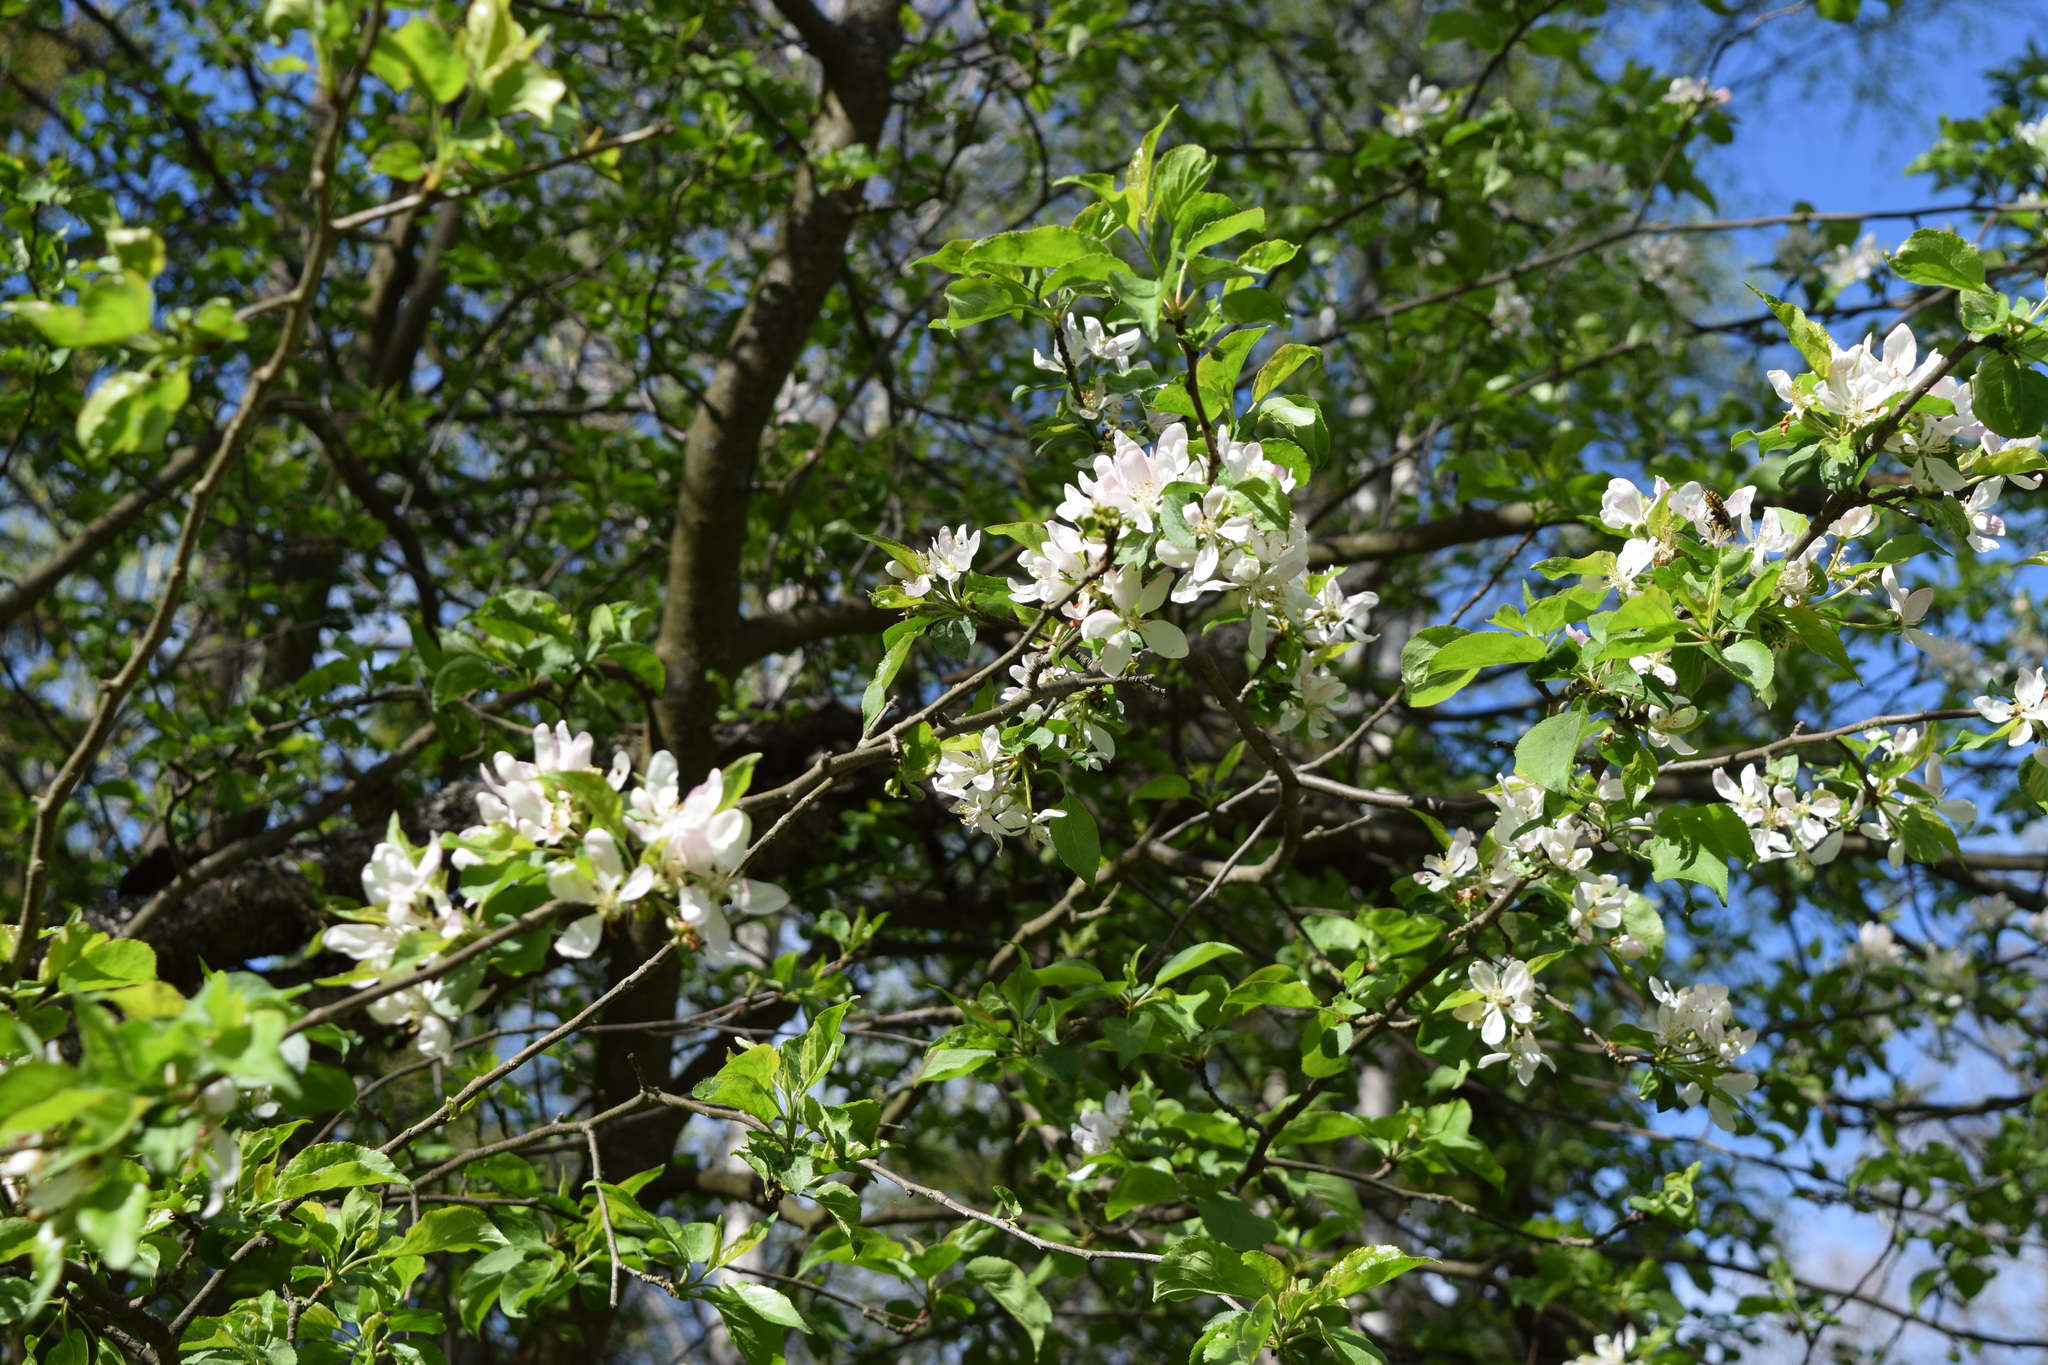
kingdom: Plantae
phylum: Tracheophyta
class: Magnoliopsida
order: Rosales
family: Rosaceae
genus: Malus
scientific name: Malus sylvestris
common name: Crab apple
